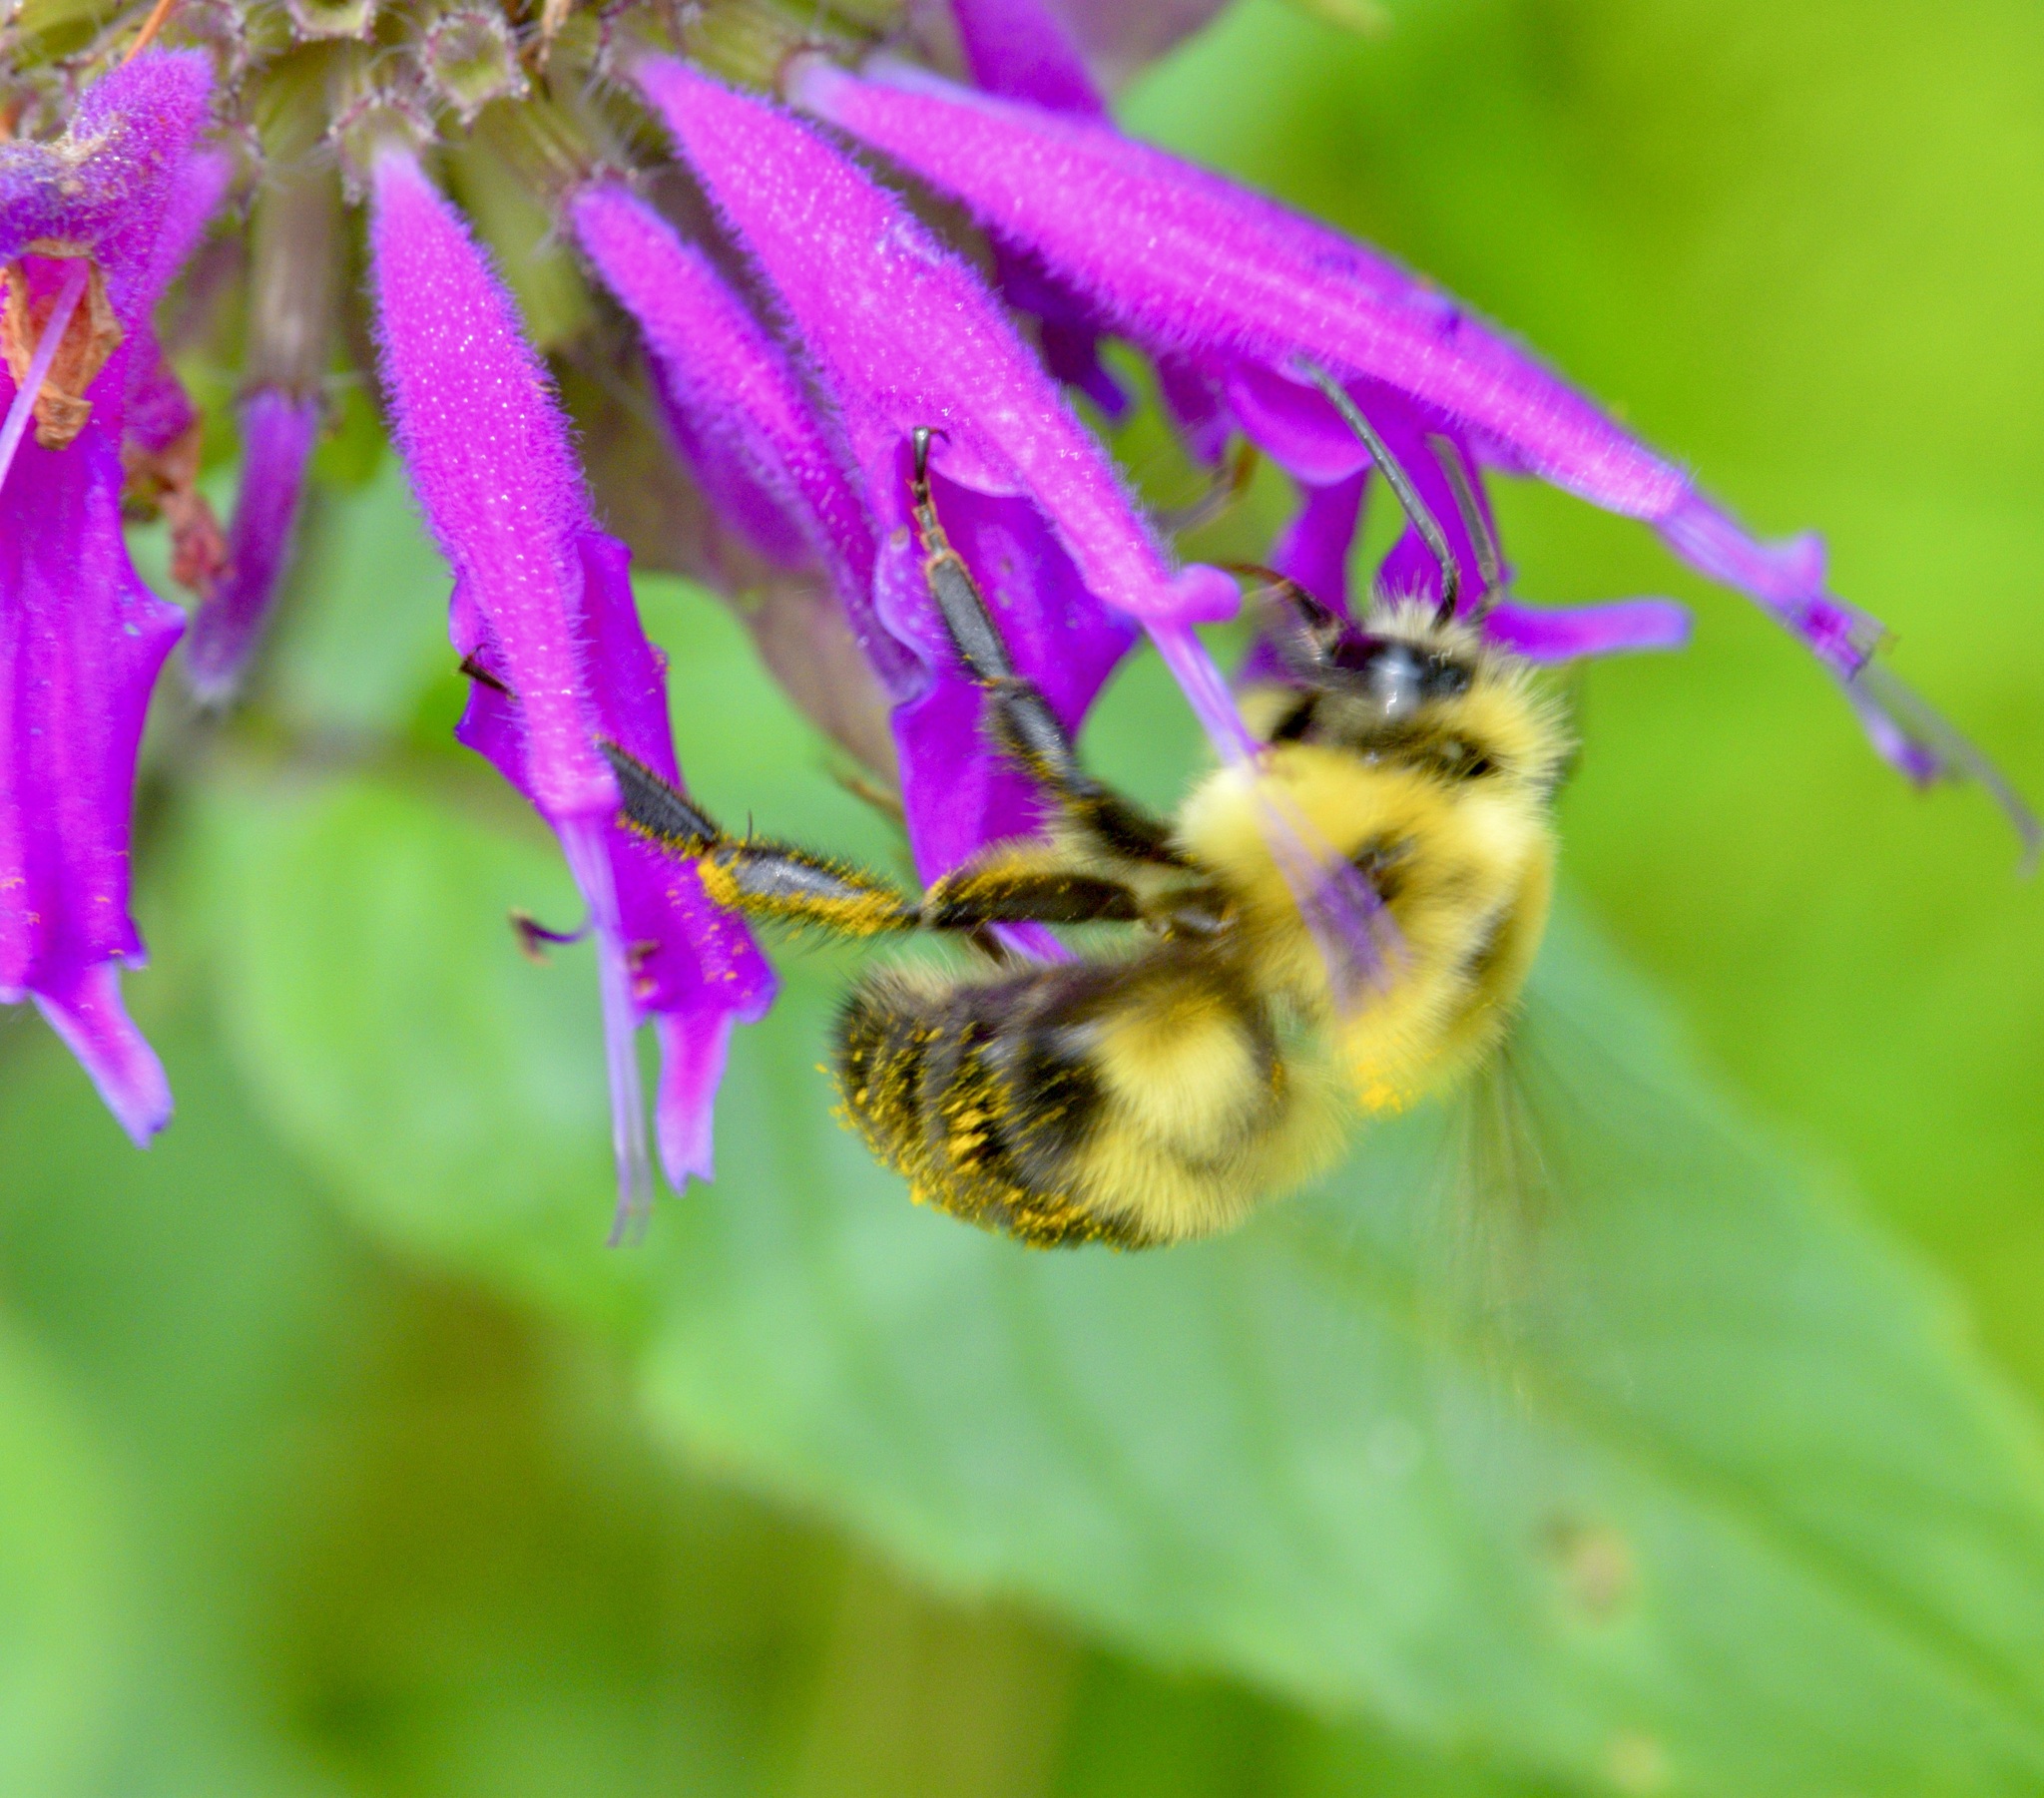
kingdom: Animalia
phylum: Arthropoda
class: Insecta
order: Hymenoptera
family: Apidae
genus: Bombus
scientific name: Bombus bimaculatus
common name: Two-spotted bumble bee
